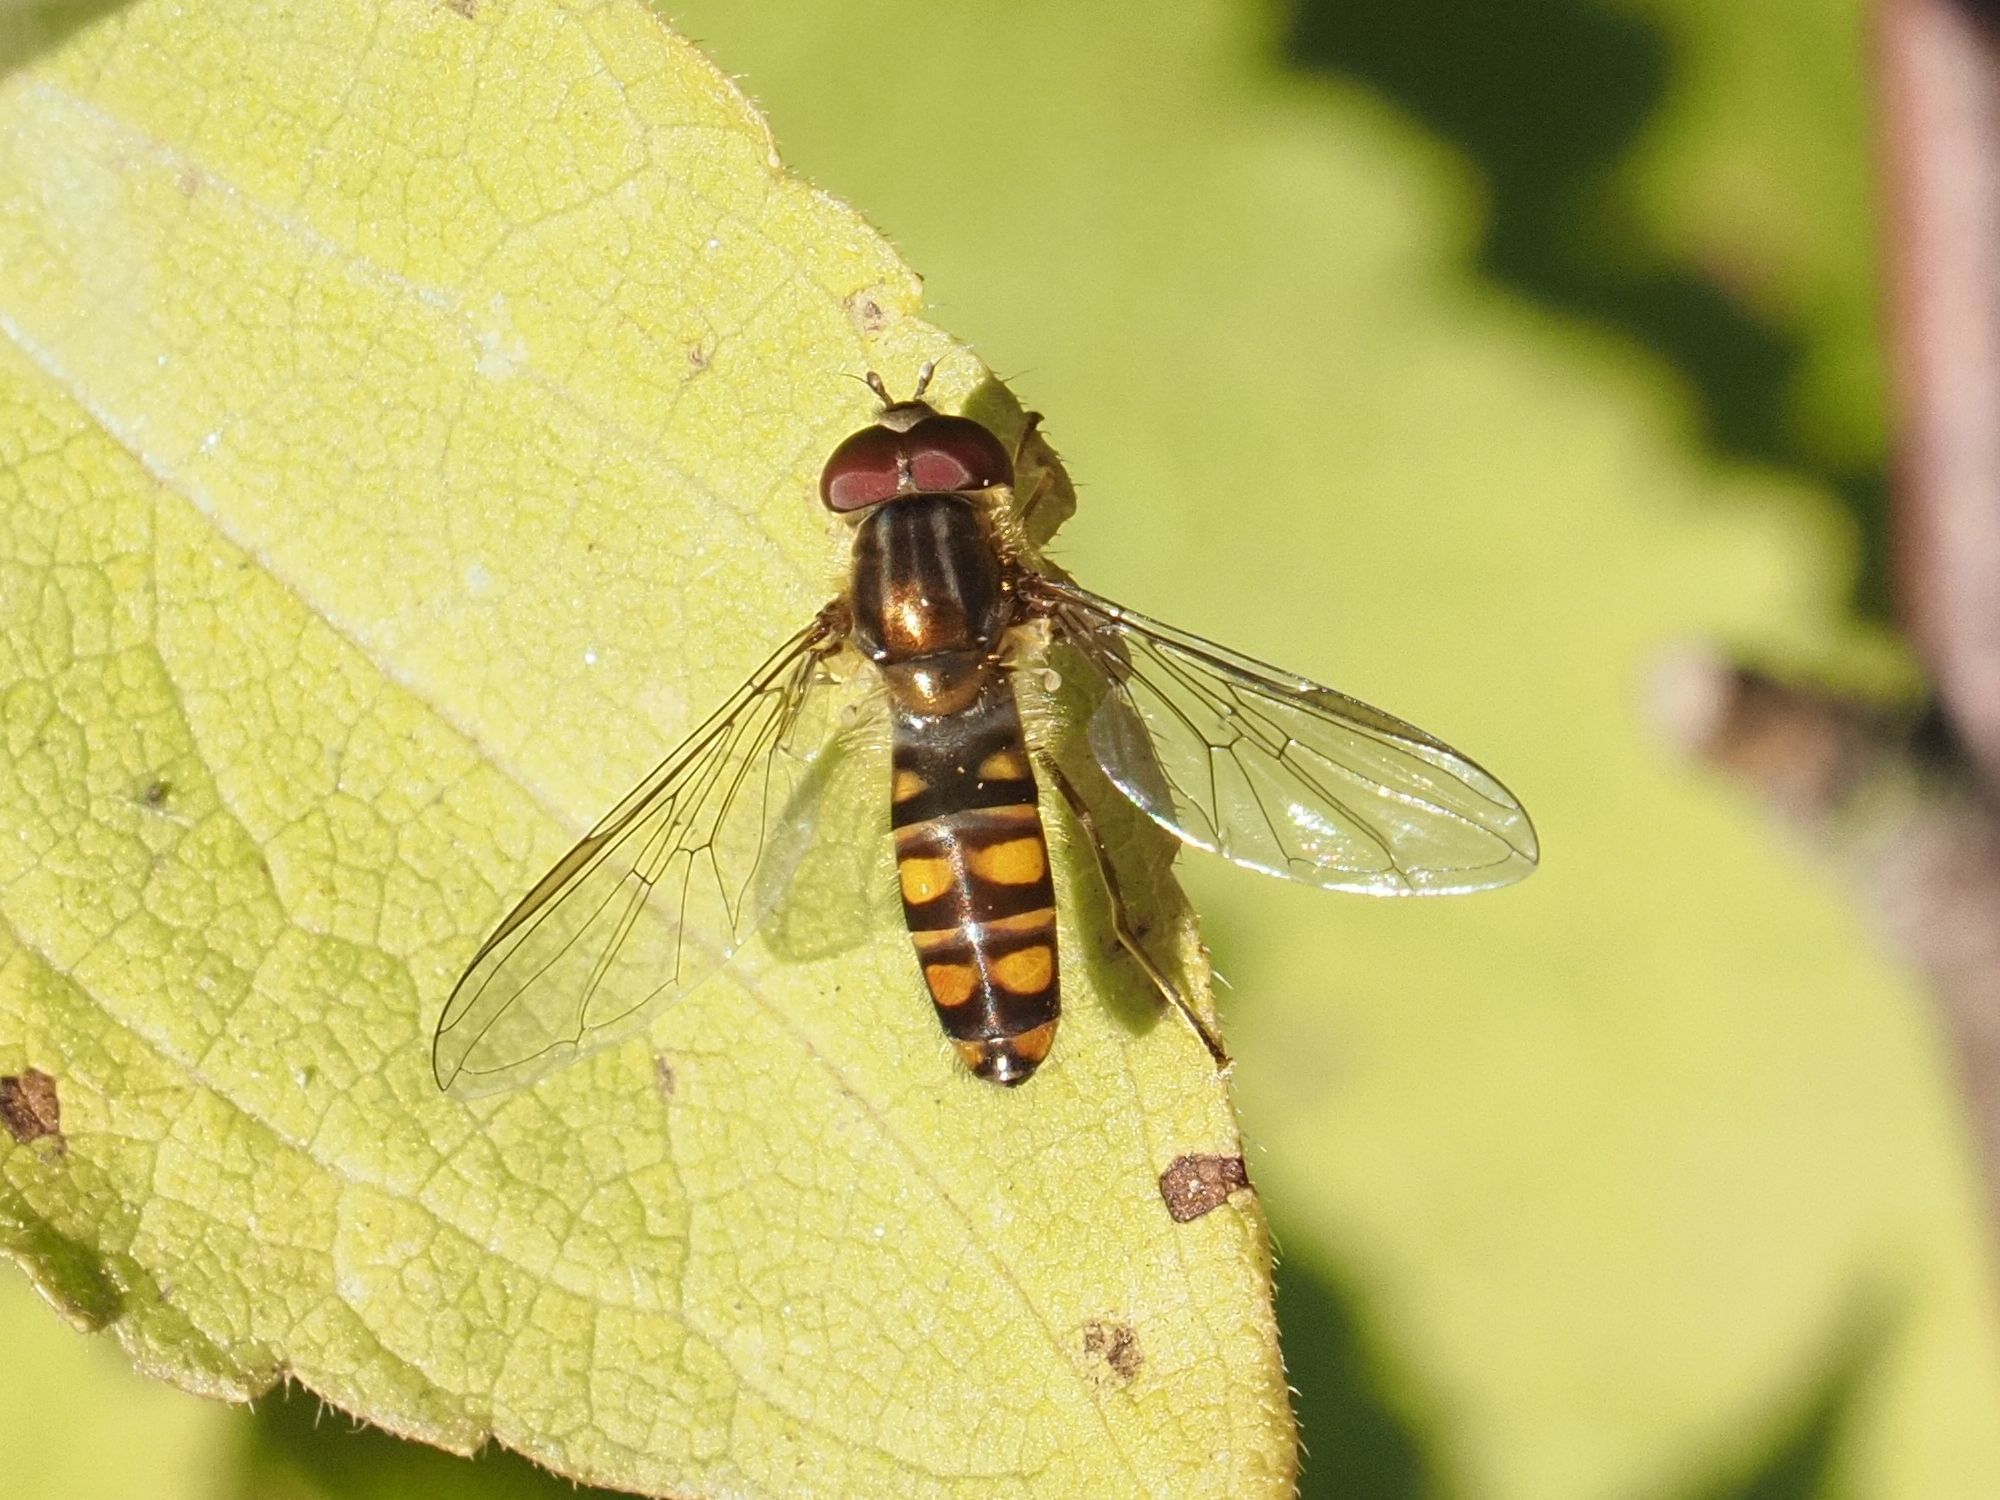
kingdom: Animalia
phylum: Arthropoda
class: Insecta
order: Diptera
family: Syrphidae
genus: Episyrphus
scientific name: Episyrphus balteatus
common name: Marmalade hoverfly
